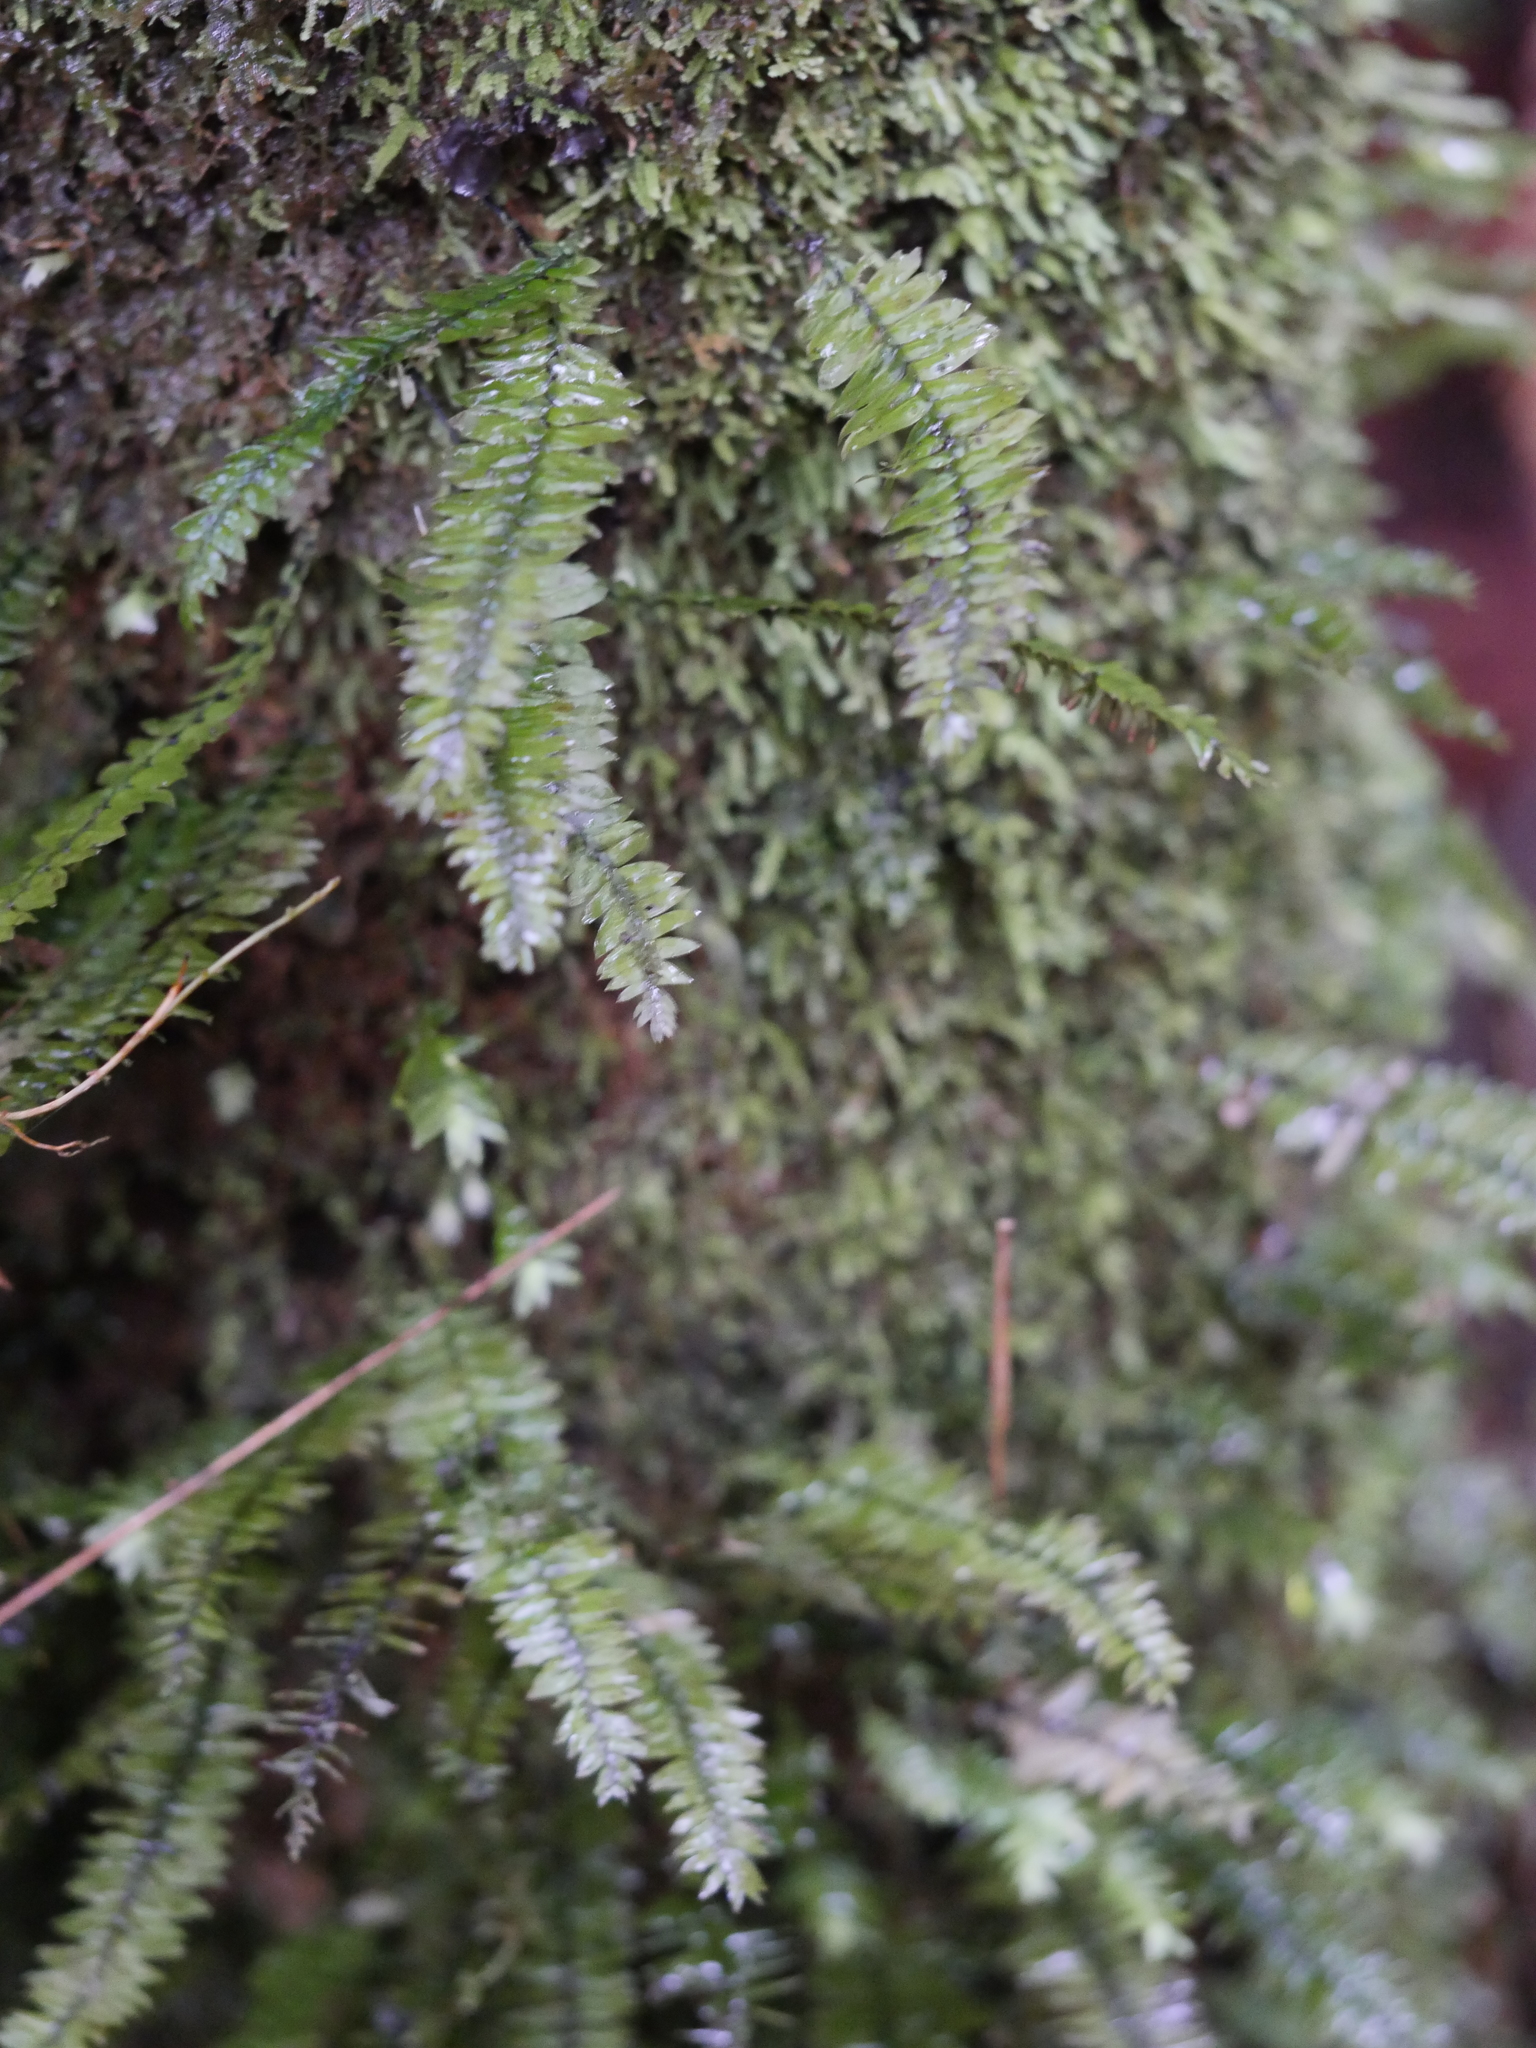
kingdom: Plantae
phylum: Bryophyta
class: Bryopsida
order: Hypopterygiales
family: Hypopterygiaceae
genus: Cyathophorum
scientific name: Cyathophorum bulbosum
